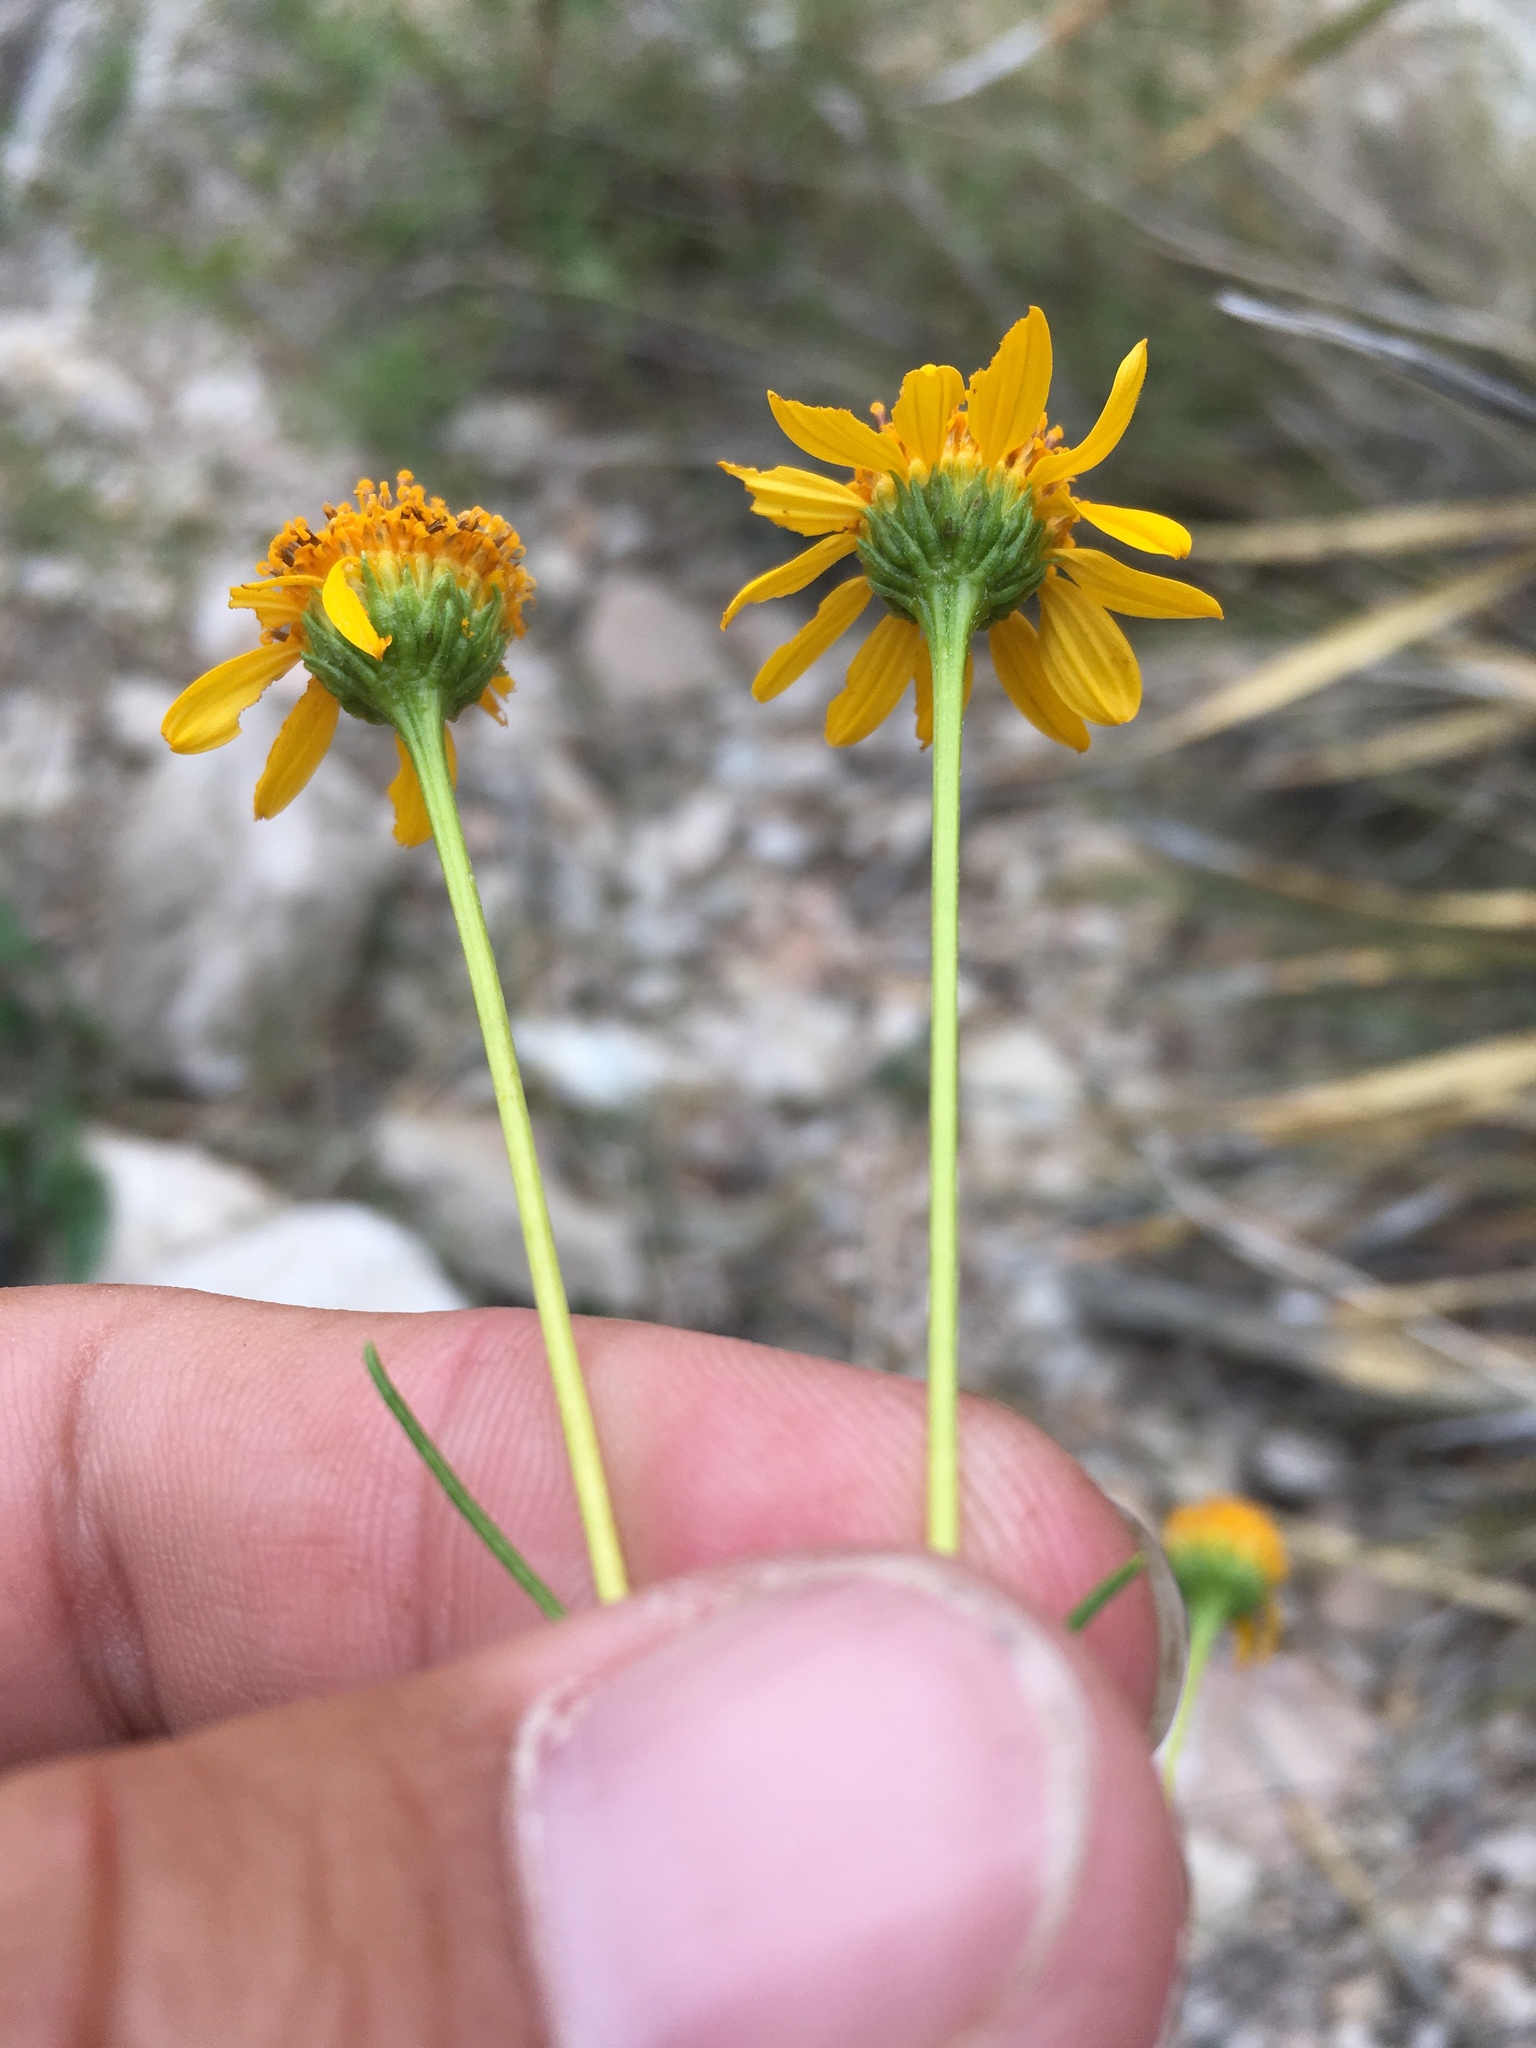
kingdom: Plantae
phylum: Tracheophyta
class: Magnoliopsida
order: Asterales
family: Asteraceae
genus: Sidneya
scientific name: Sidneya tenuifolia
